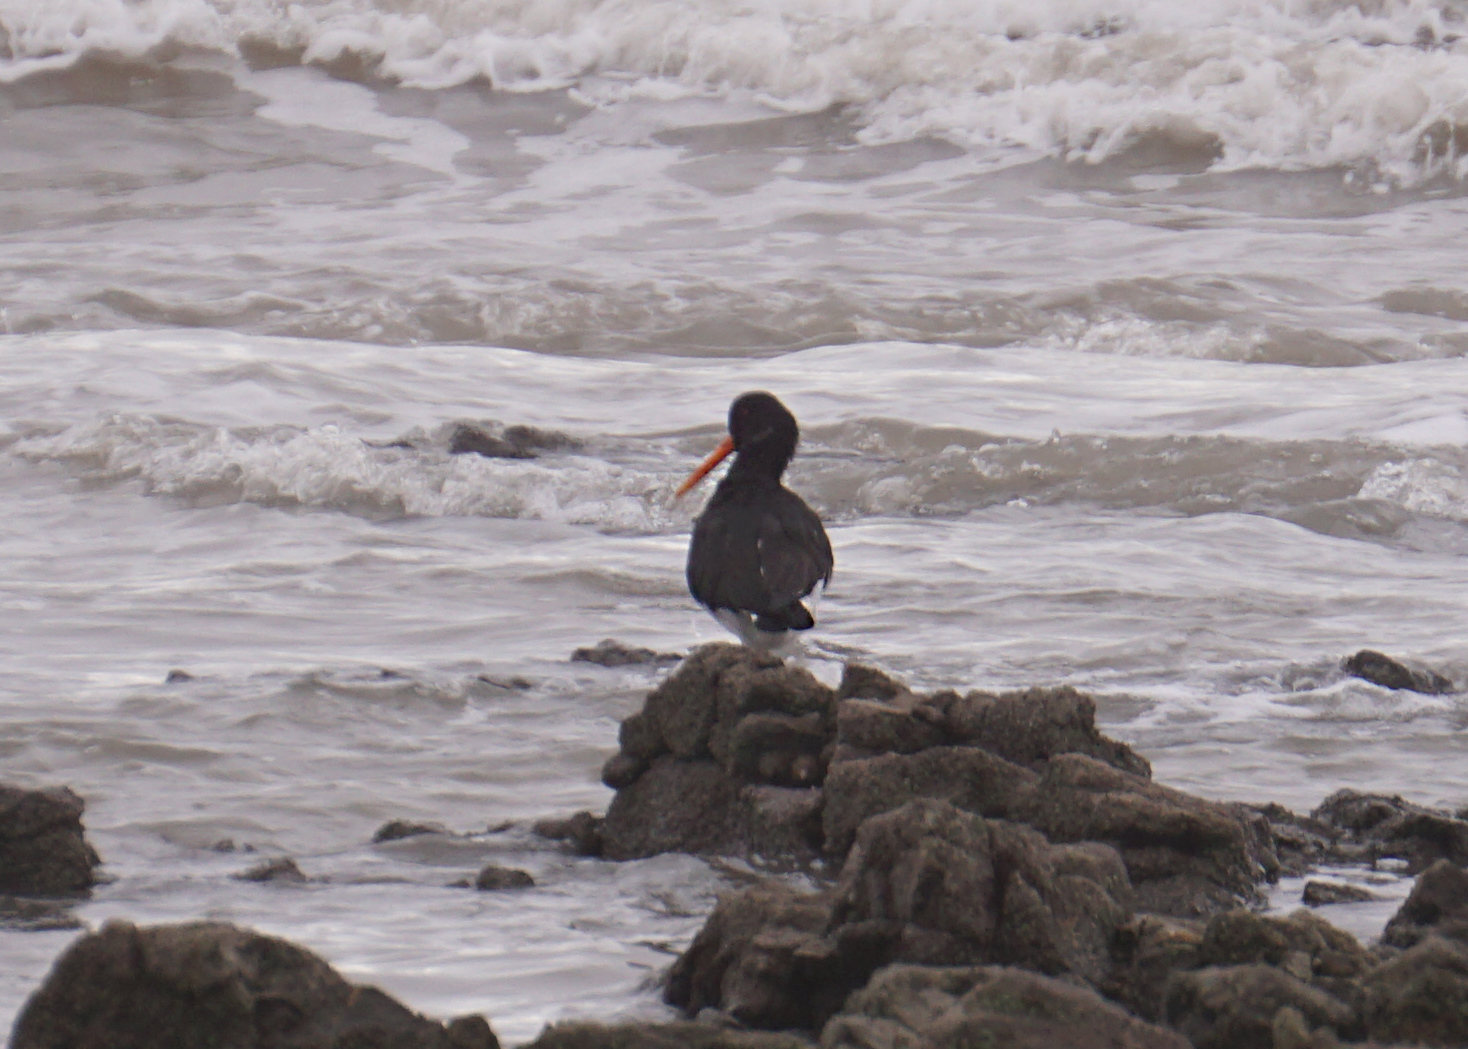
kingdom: Animalia
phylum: Chordata
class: Aves
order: Charadriiformes
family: Haematopodidae
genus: Haematopus
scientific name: Haematopus ostralegus
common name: Eurasian oystercatcher
